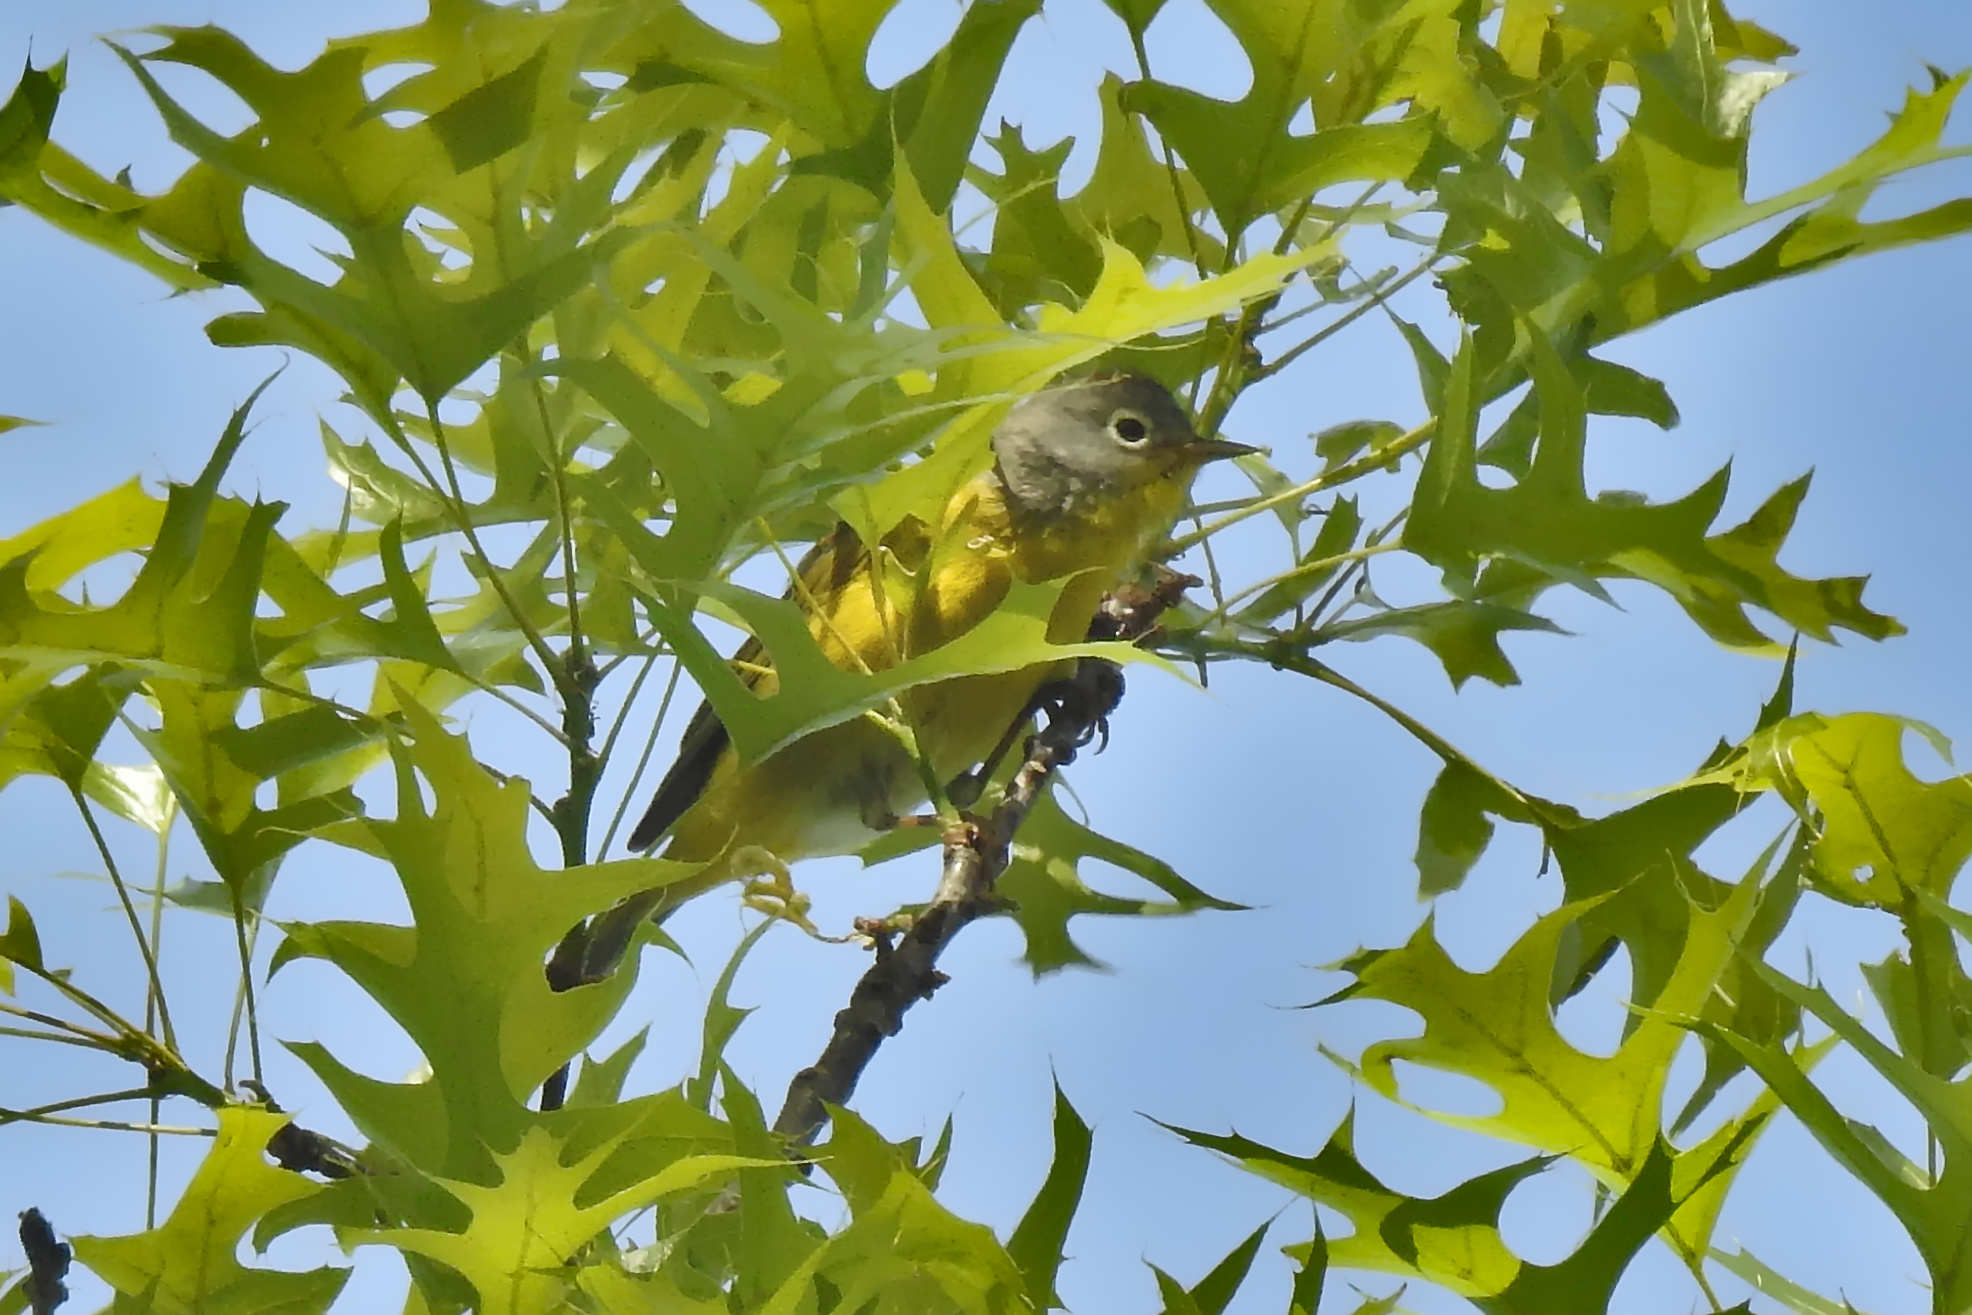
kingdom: Animalia
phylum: Chordata
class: Aves
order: Passeriformes
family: Parulidae
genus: Leiothlypis
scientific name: Leiothlypis ruficapilla
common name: Nashville warbler
